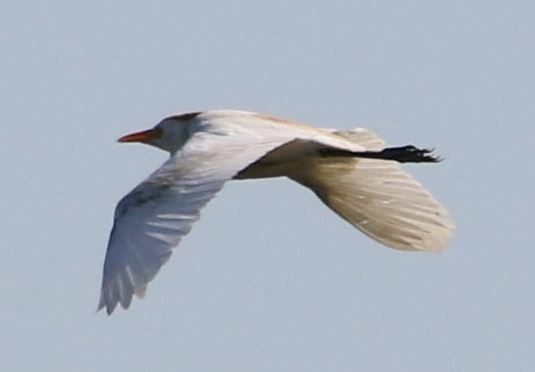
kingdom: Animalia
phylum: Chordata
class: Aves
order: Pelecaniformes
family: Ardeidae
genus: Bubulcus
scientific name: Bubulcus ibis
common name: Cattle egret
